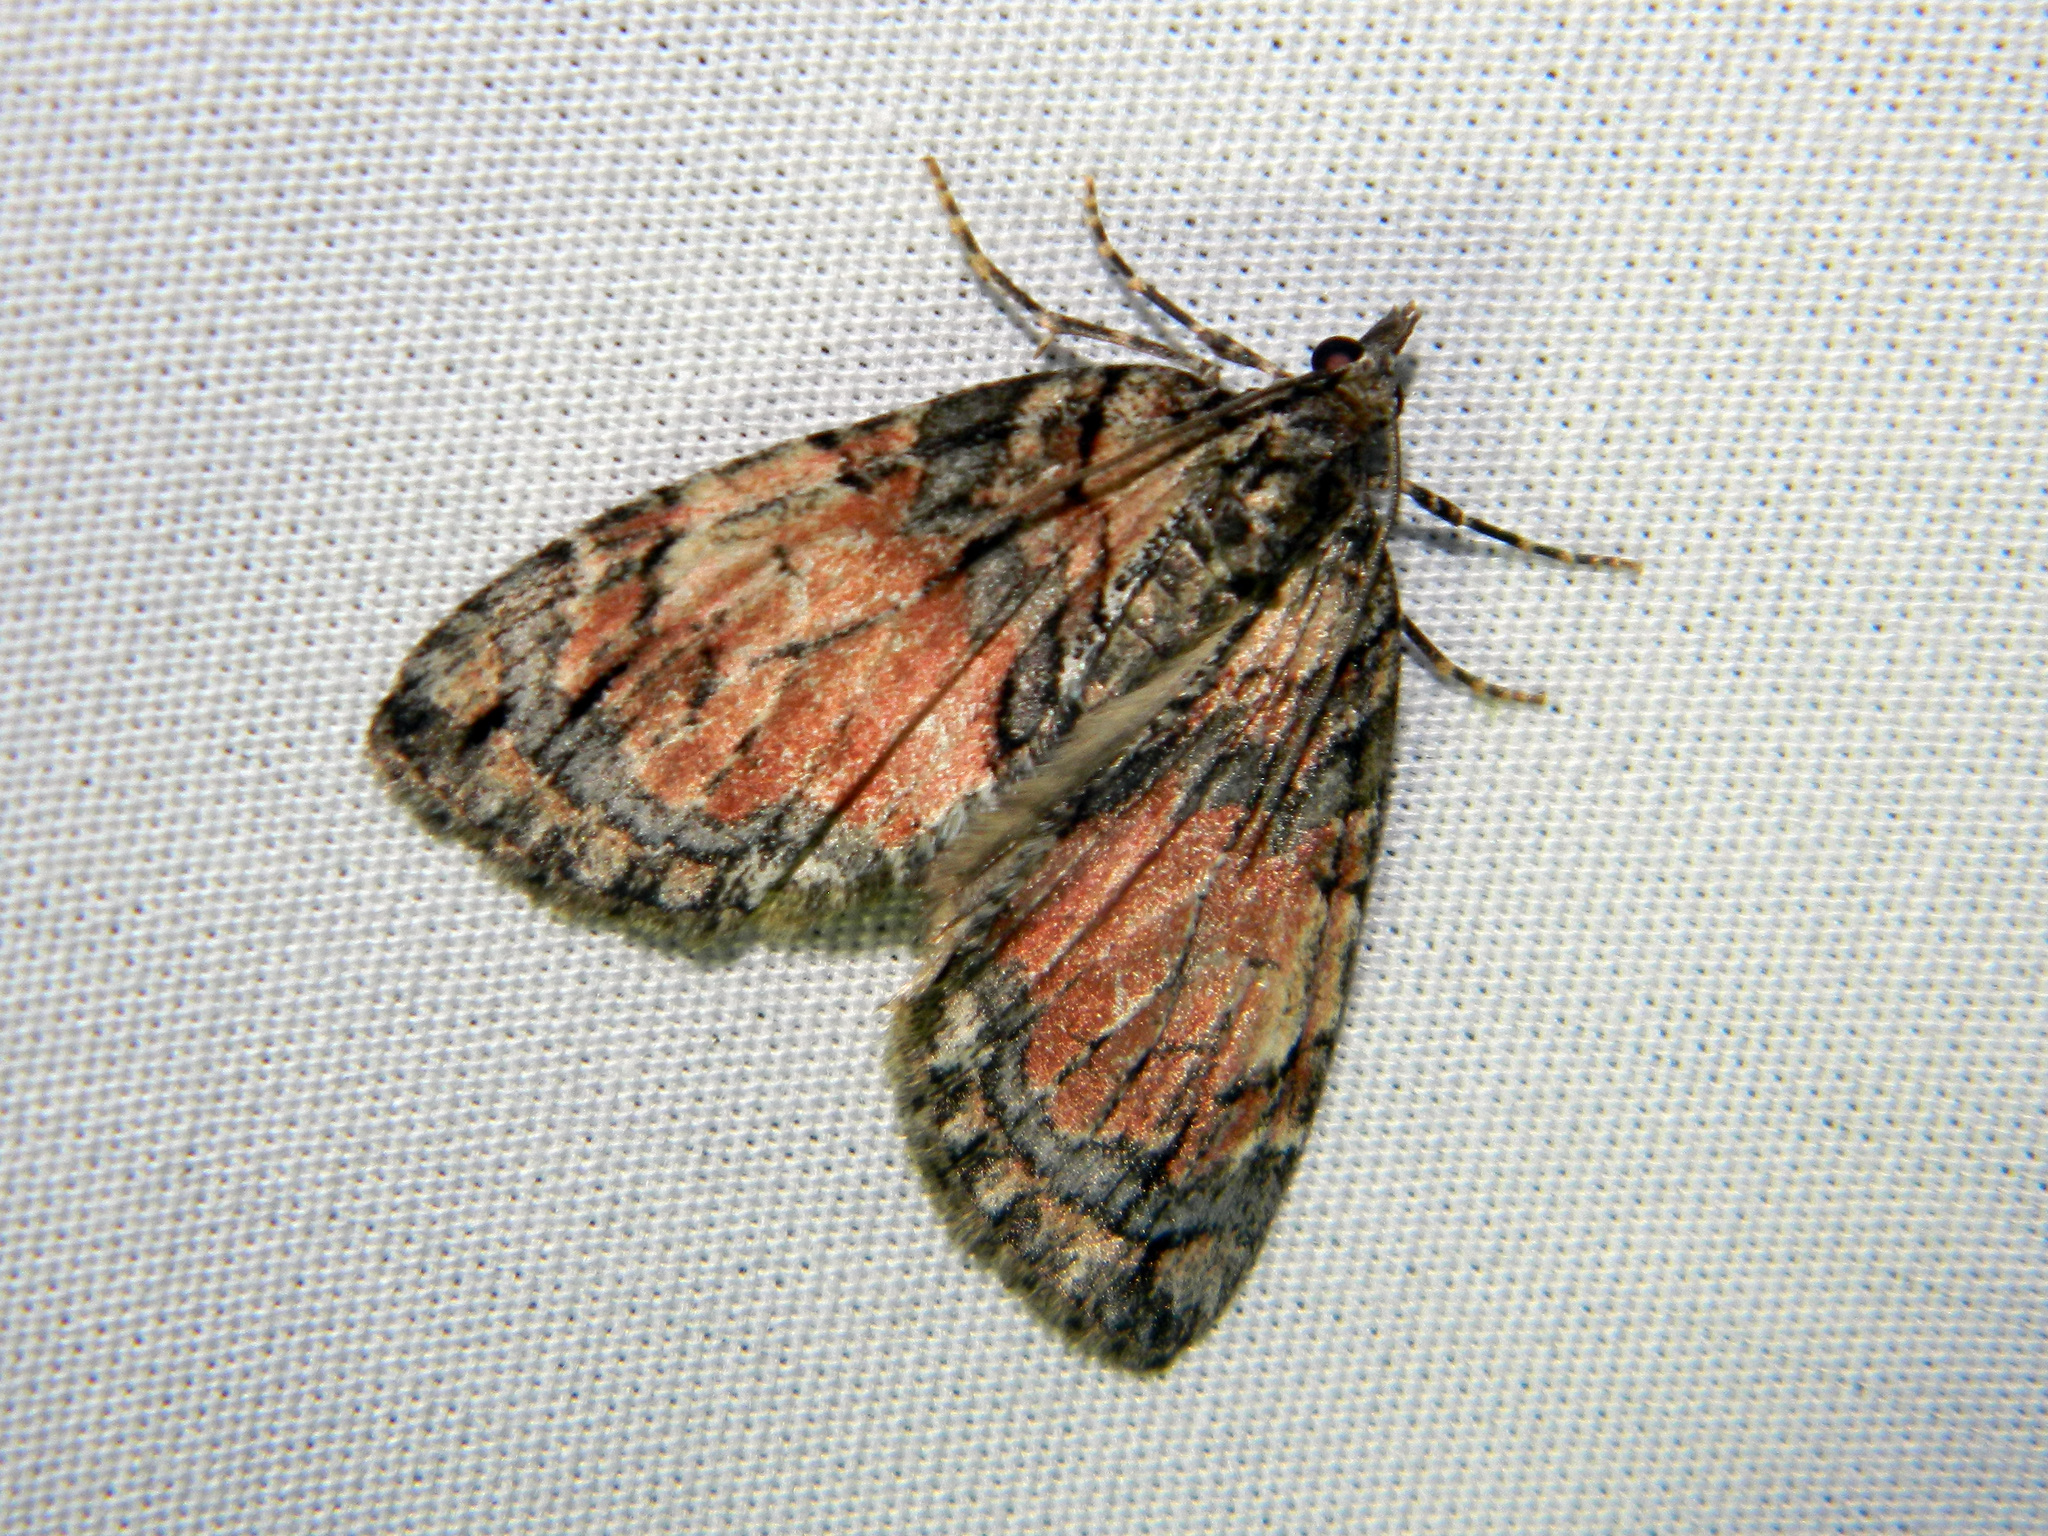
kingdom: Animalia
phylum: Arthropoda
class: Insecta
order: Lepidoptera
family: Geometridae
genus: Hydriomena
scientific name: Hydriomena perfracta
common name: Shattered hydriomena moth
